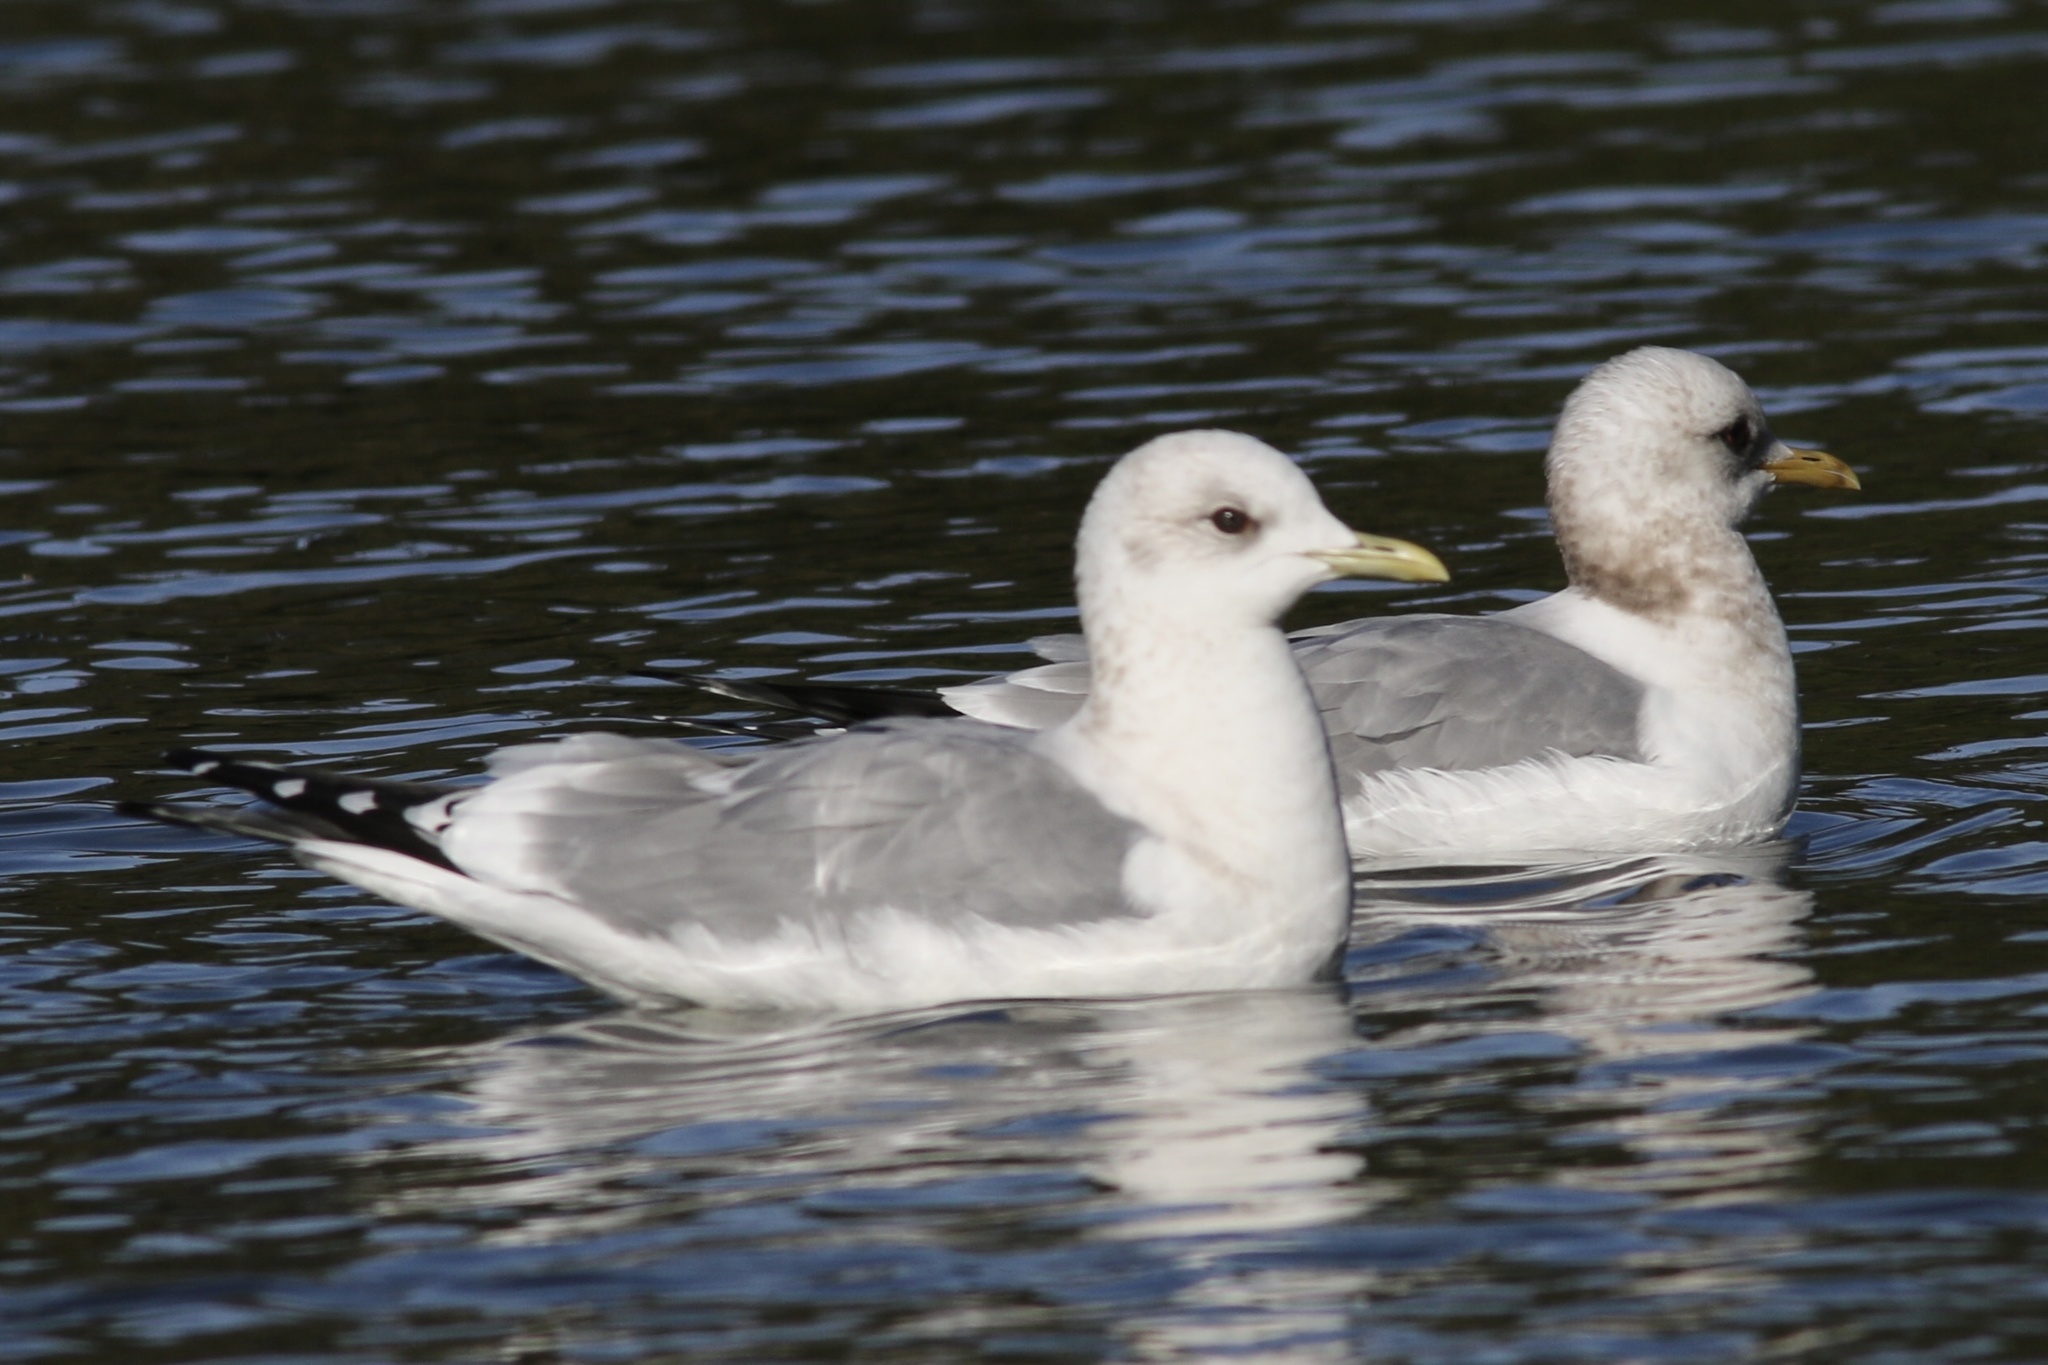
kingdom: Animalia
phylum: Chordata
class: Aves
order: Charadriiformes
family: Laridae
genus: Larus
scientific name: Larus brachyrhynchus
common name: Short-billed gull
